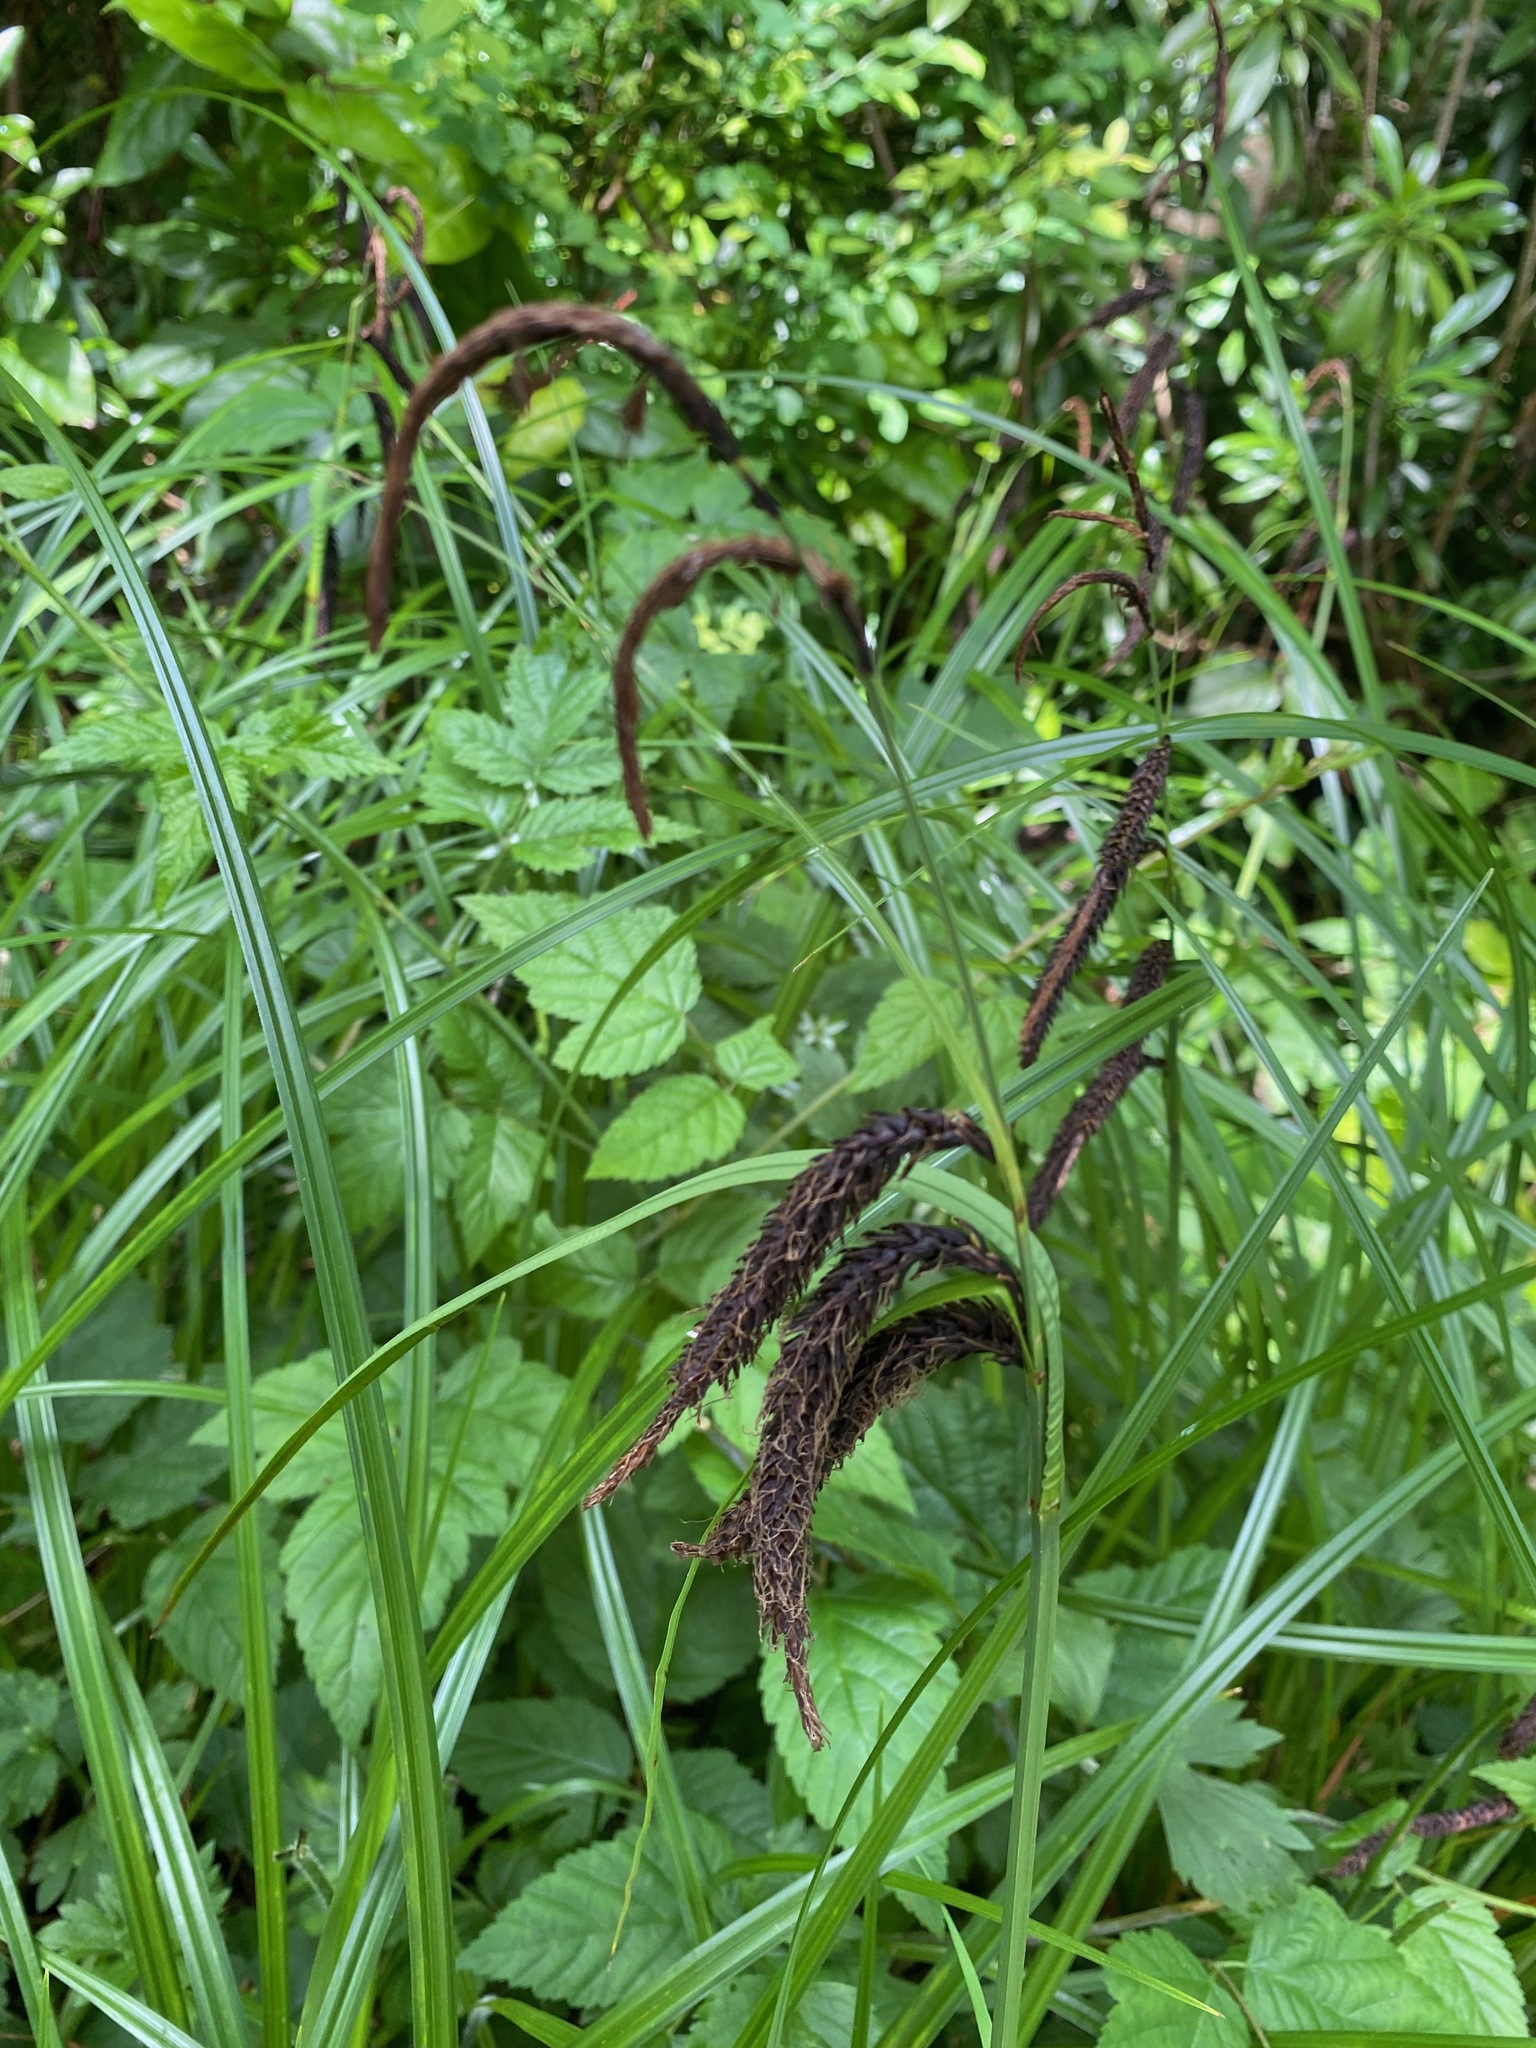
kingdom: Plantae
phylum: Tracheophyta
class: Liliopsida
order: Poales
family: Cyperaceae
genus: Carex
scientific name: Carex obnupta
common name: Slough sedge
